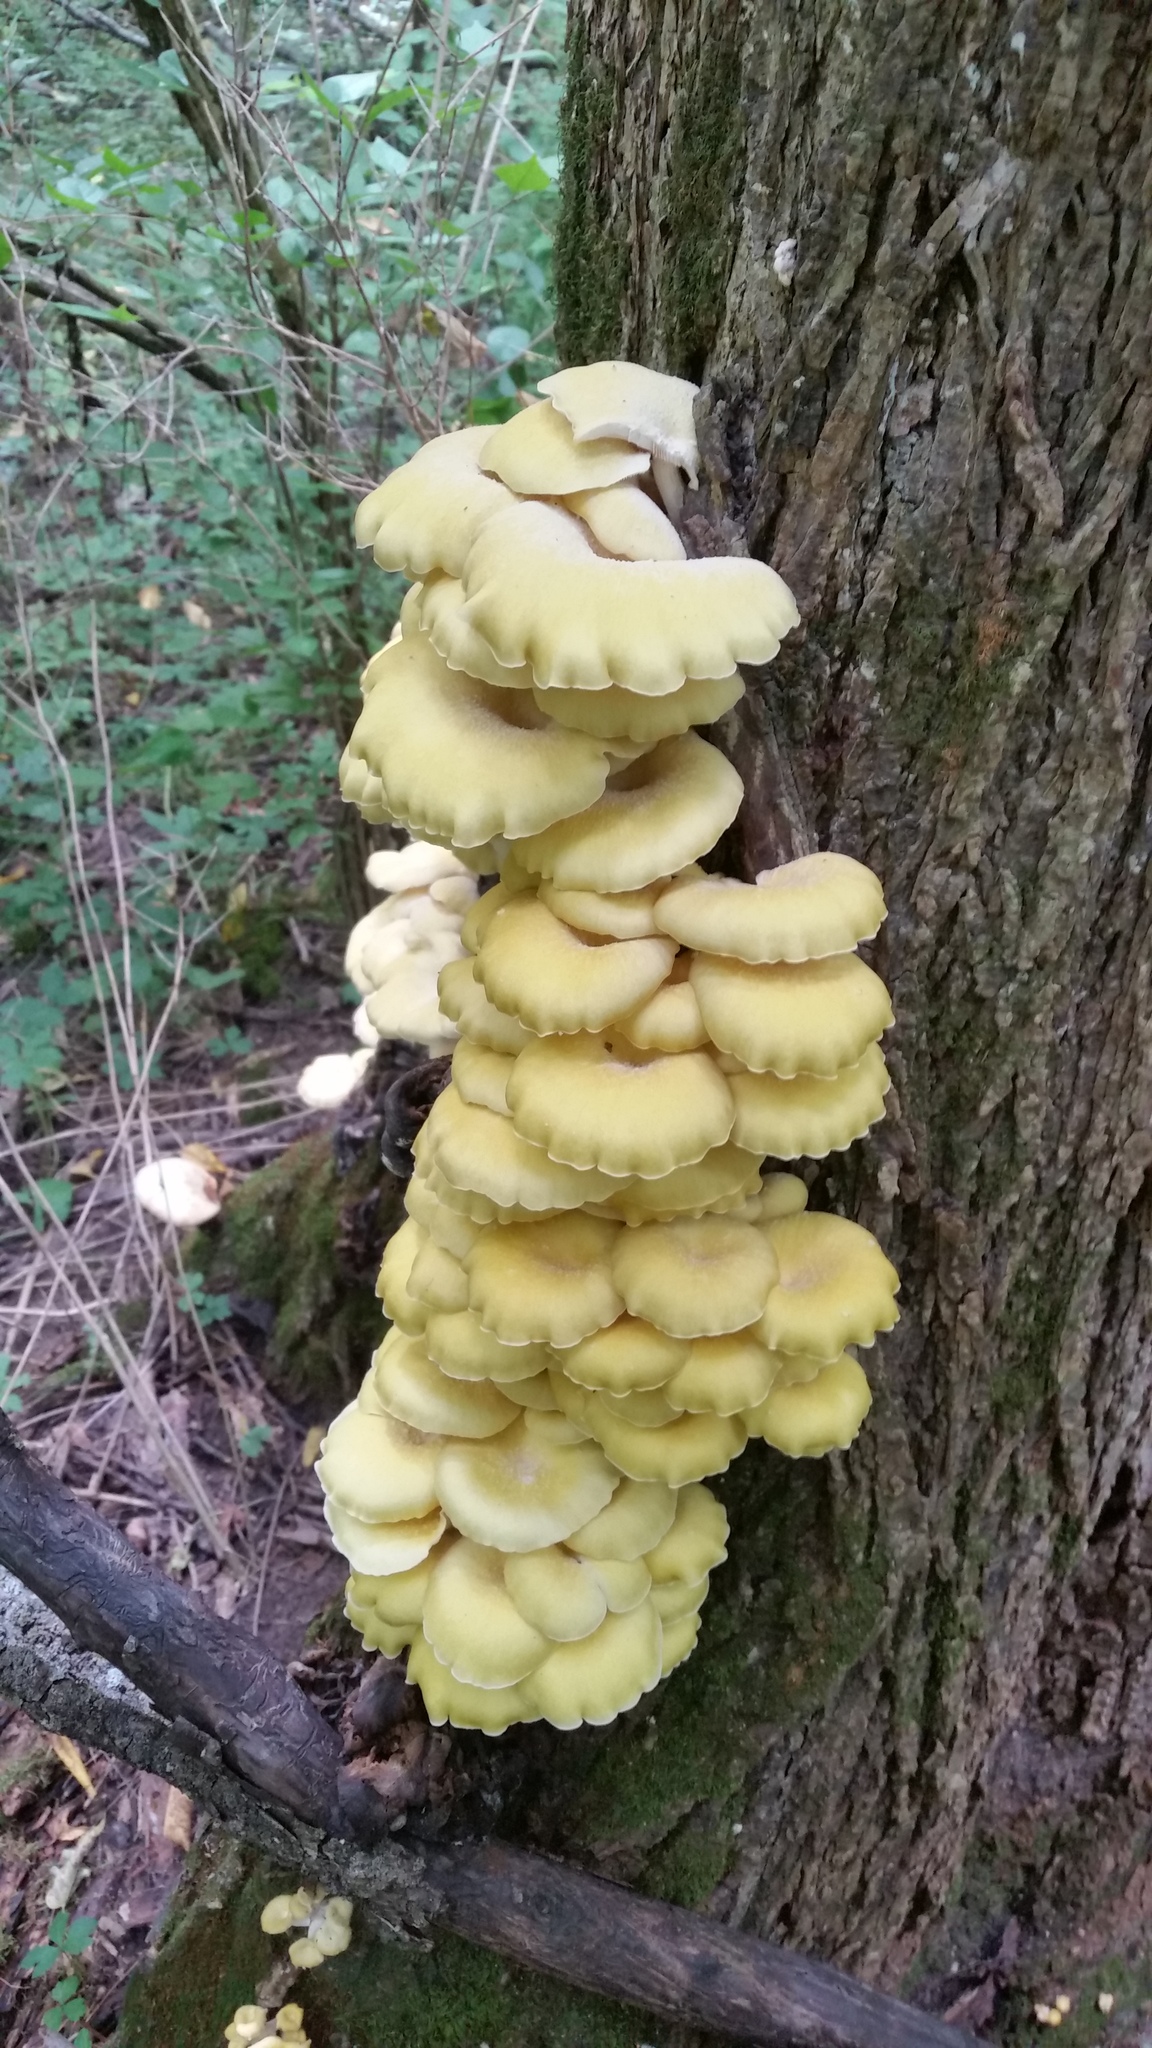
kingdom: Fungi
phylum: Basidiomycota
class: Agaricomycetes
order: Agaricales
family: Pleurotaceae
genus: Pleurotus
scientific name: Pleurotus citrinopileatus
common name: Golden oyster mushroom
